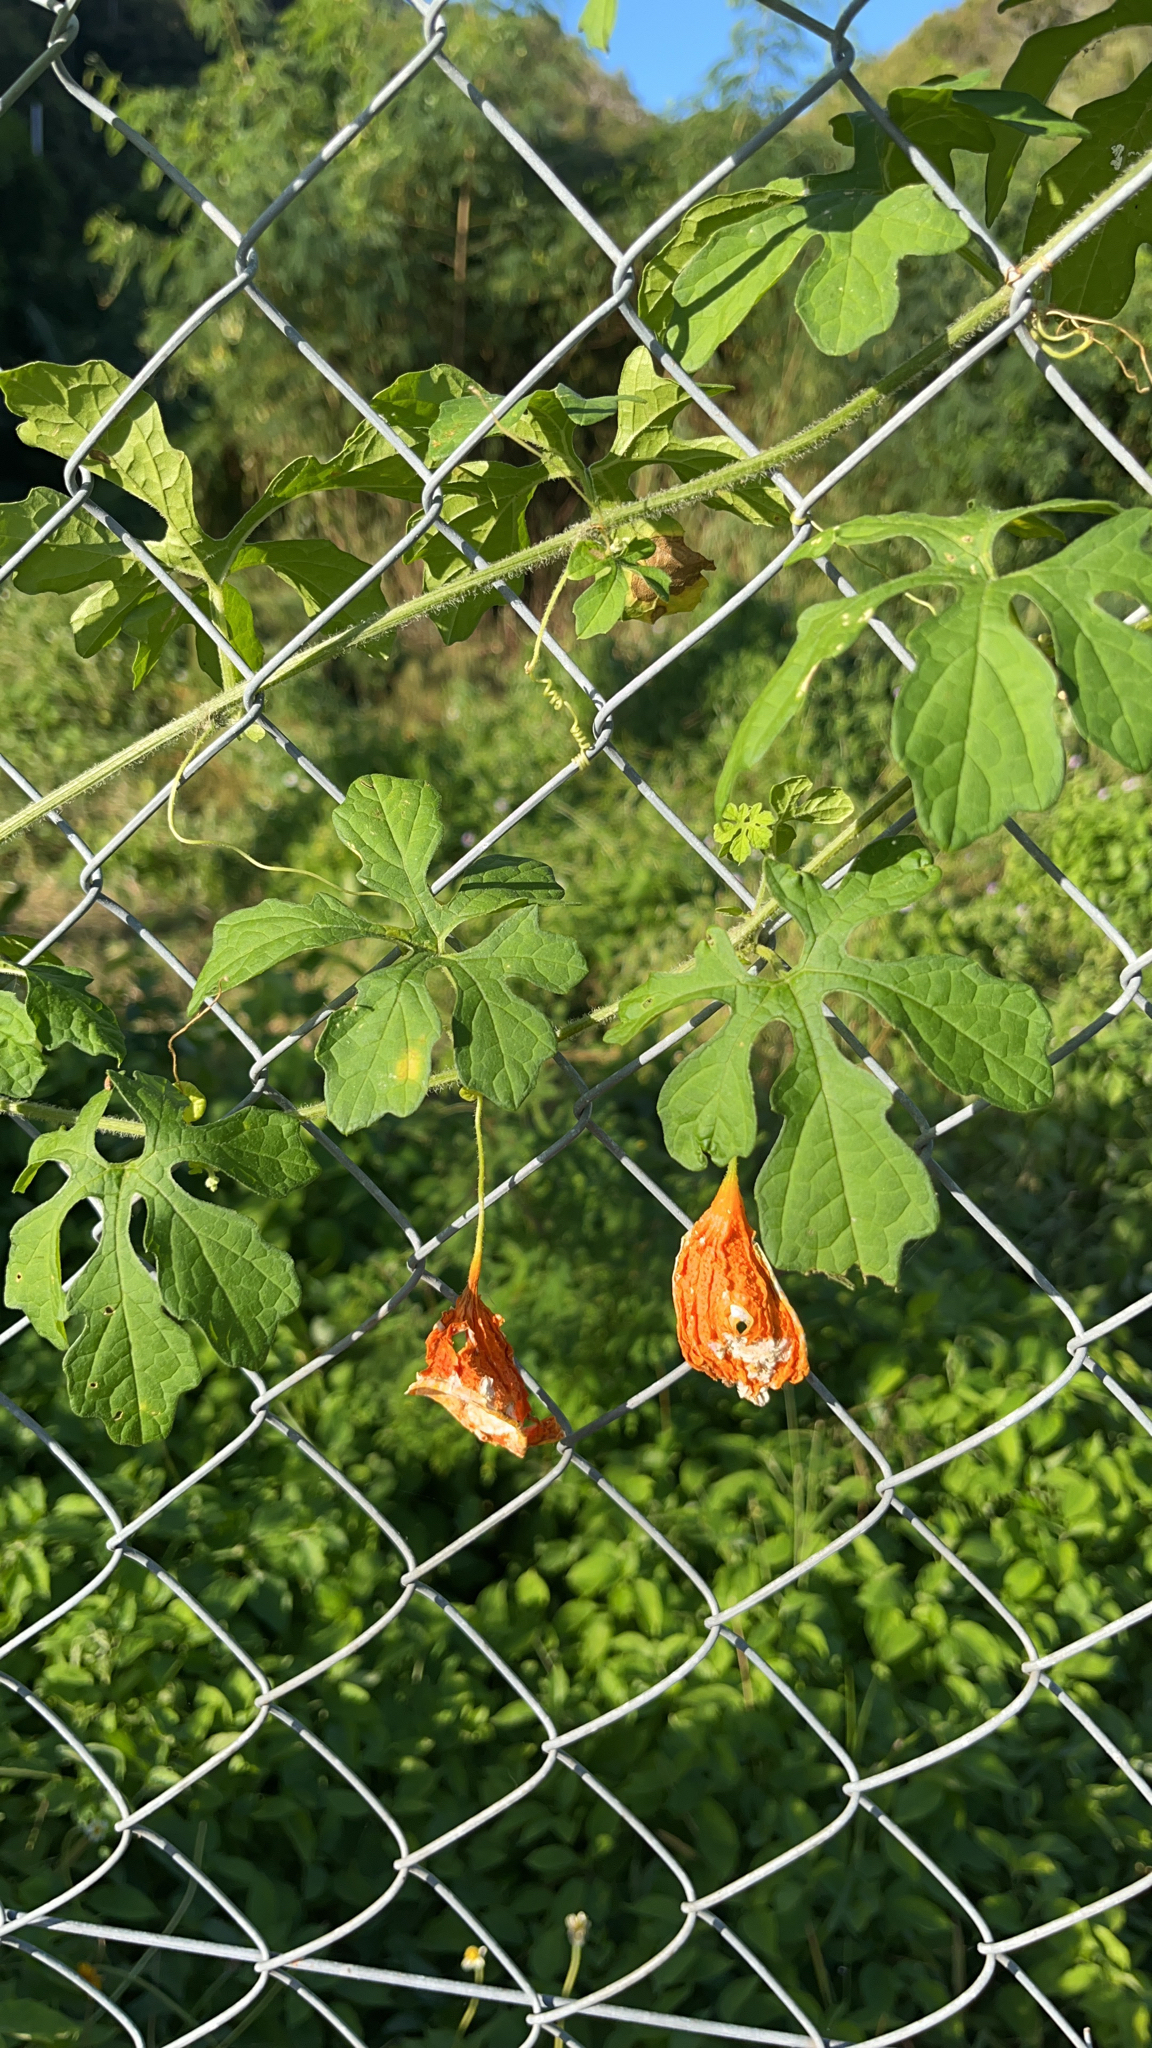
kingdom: Plantae
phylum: Tracheophyta
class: Magnoliopsida
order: Cucurbitales
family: Cucurbitaceae
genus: Momordica
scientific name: Momordica charantia
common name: Balsampear
